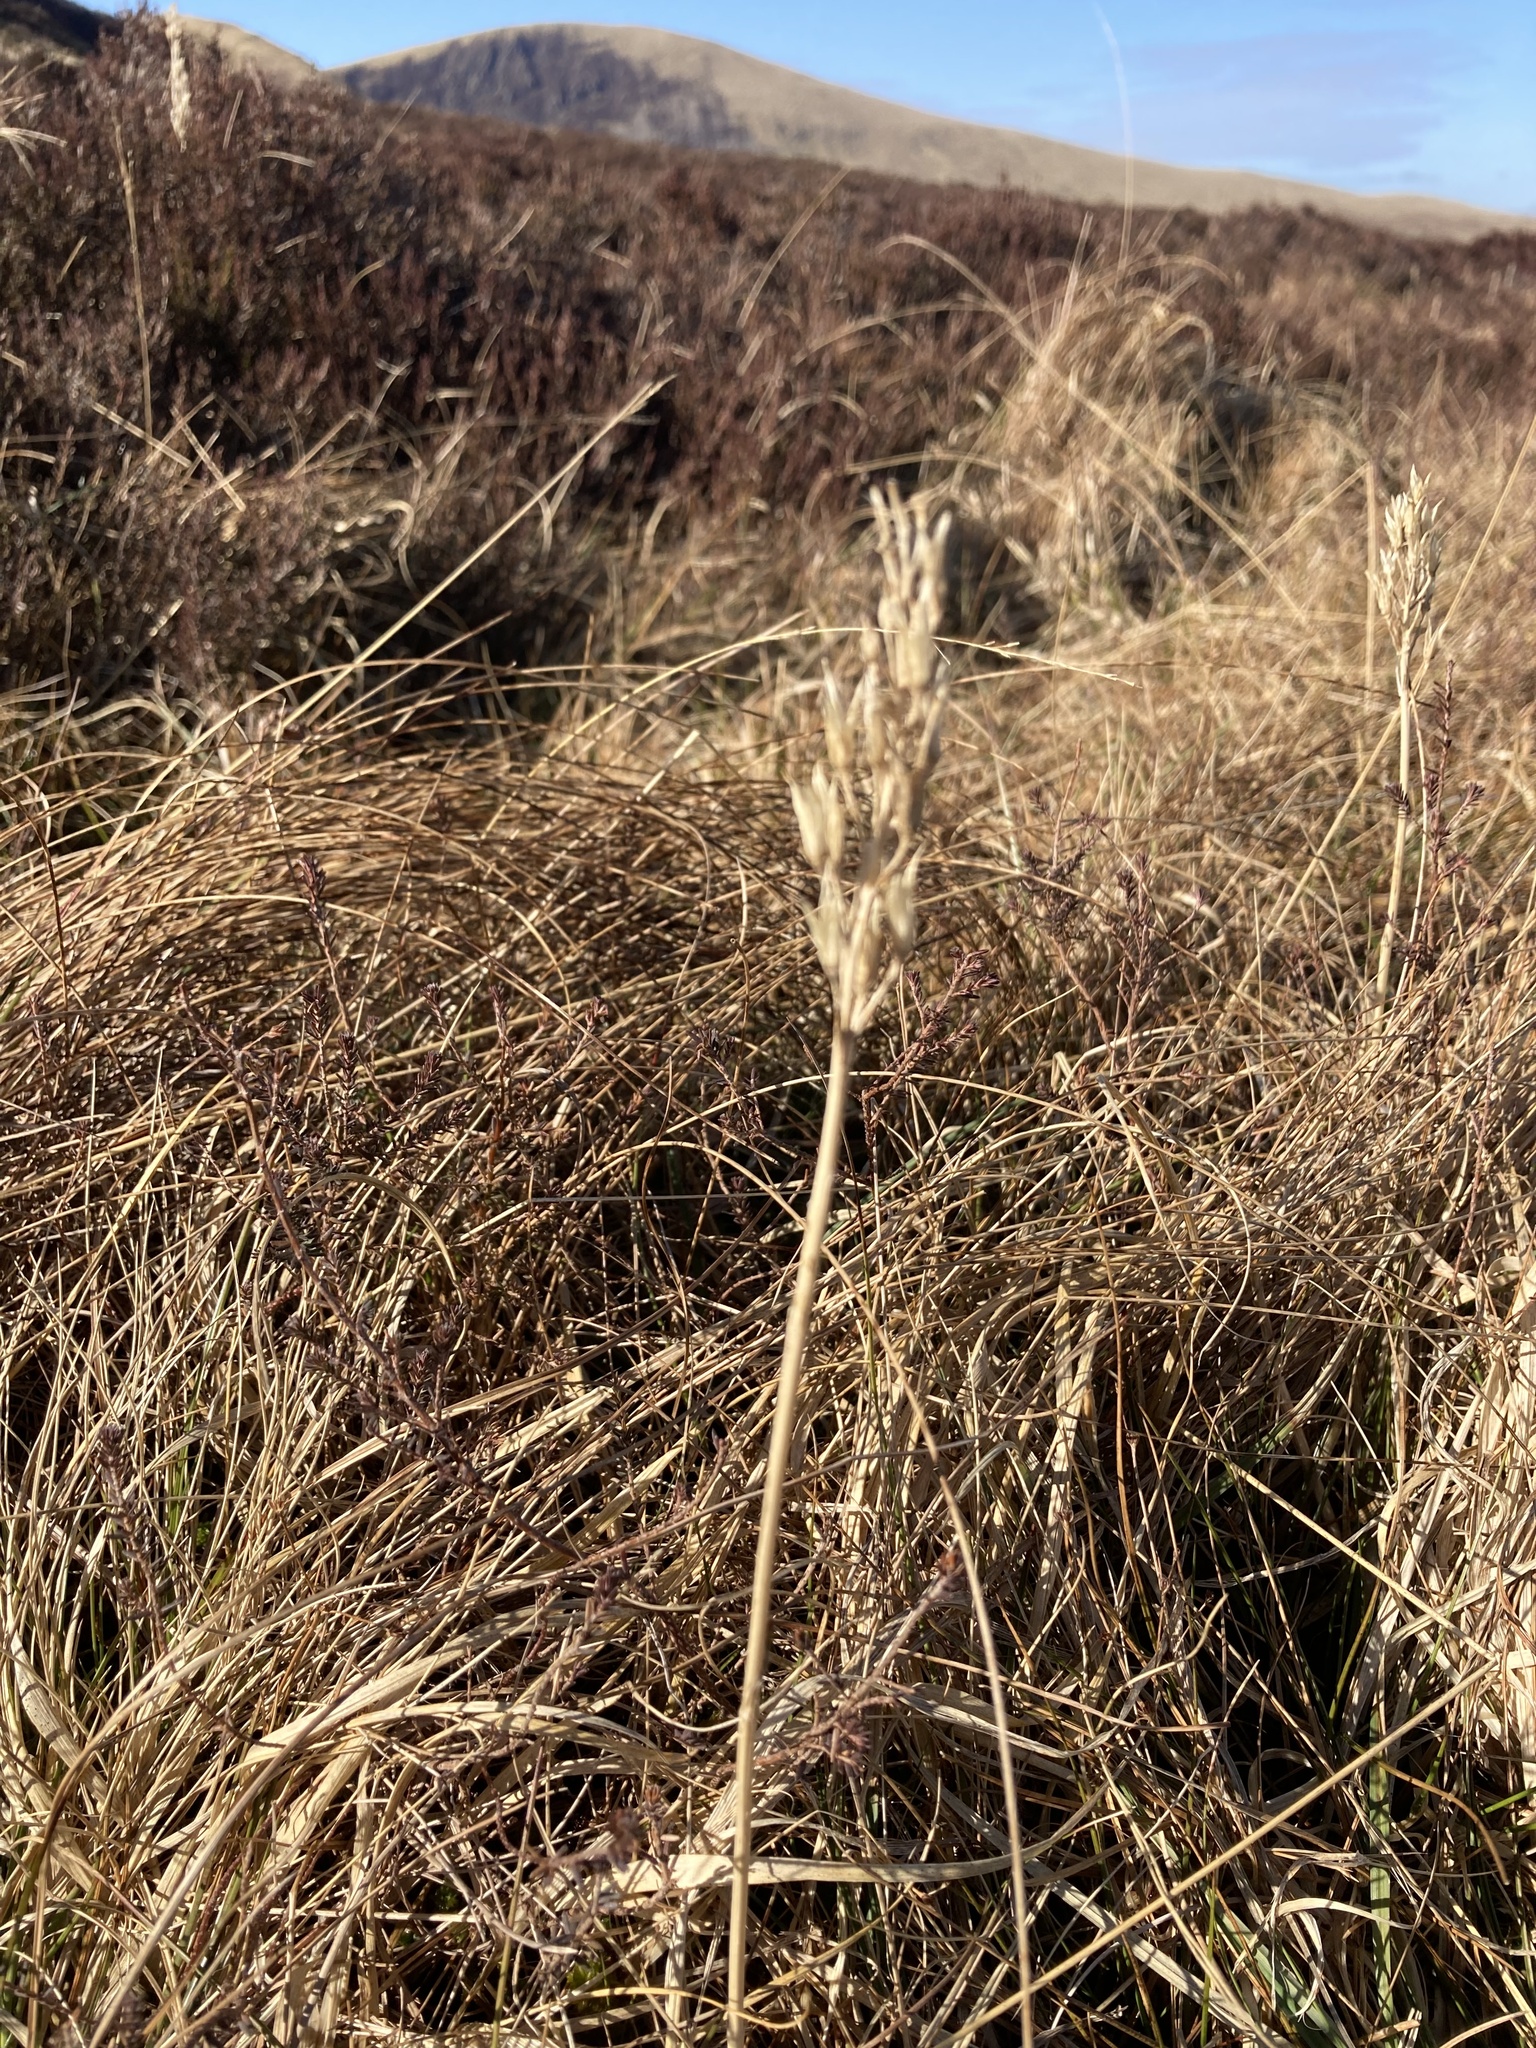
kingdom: Plantae
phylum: Tracheophyta
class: Liliopsida
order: Dioscoreales
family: Nartheciaceae
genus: Narthecium
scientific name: Narthecium ossifragum
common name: Bog asphodel
